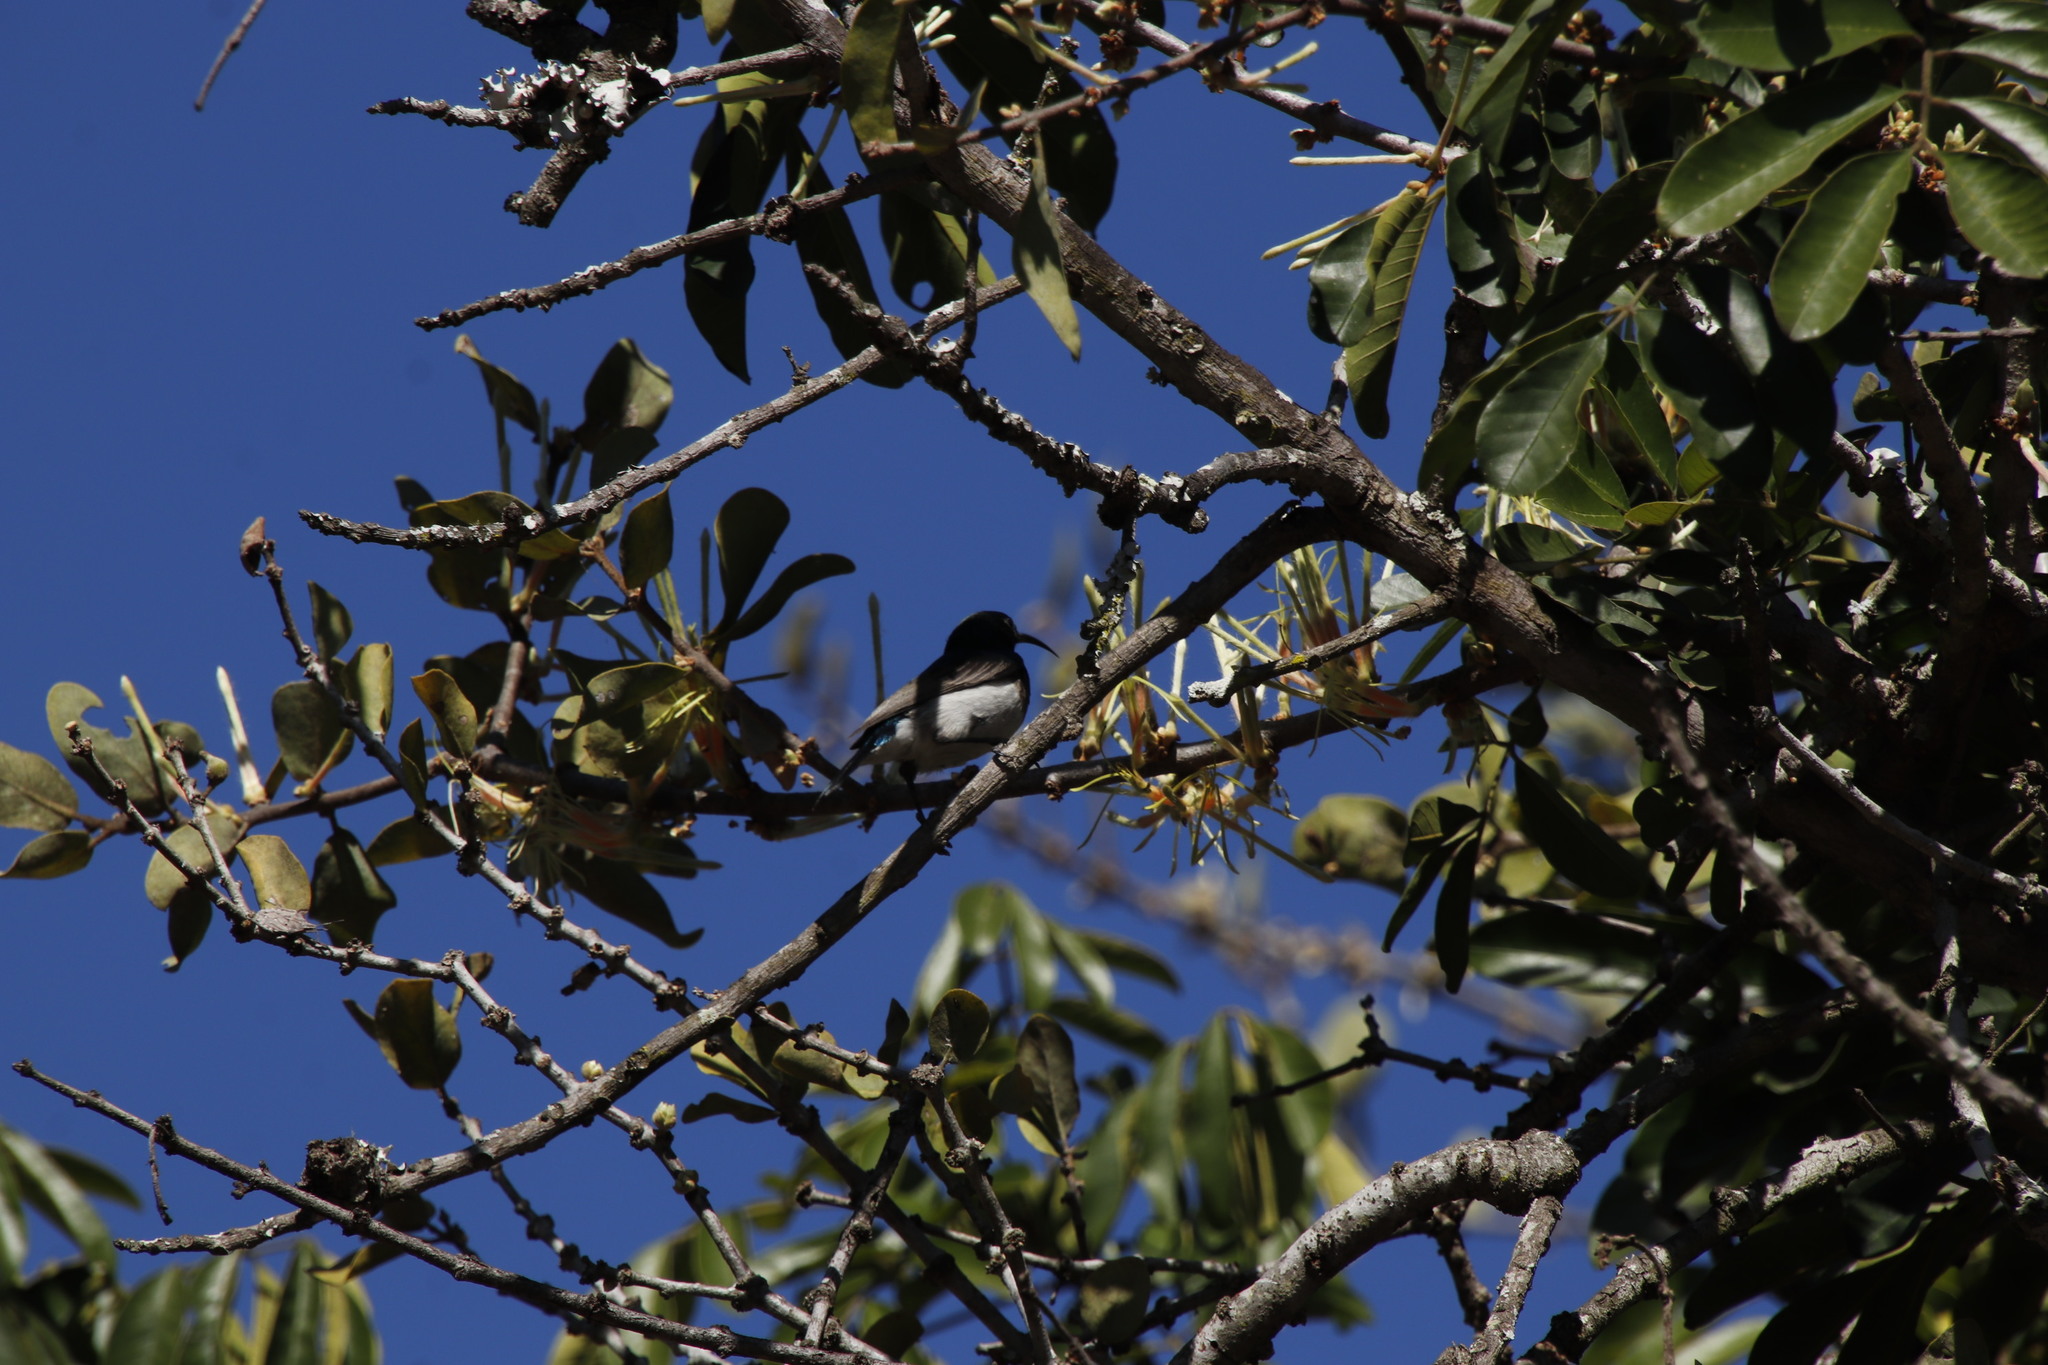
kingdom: Animalia
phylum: Chordata
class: Aves
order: Passeriformes
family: Nectariniidae
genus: Cinnyris
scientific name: Cinnyris talatala
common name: White-bellied sunbird
